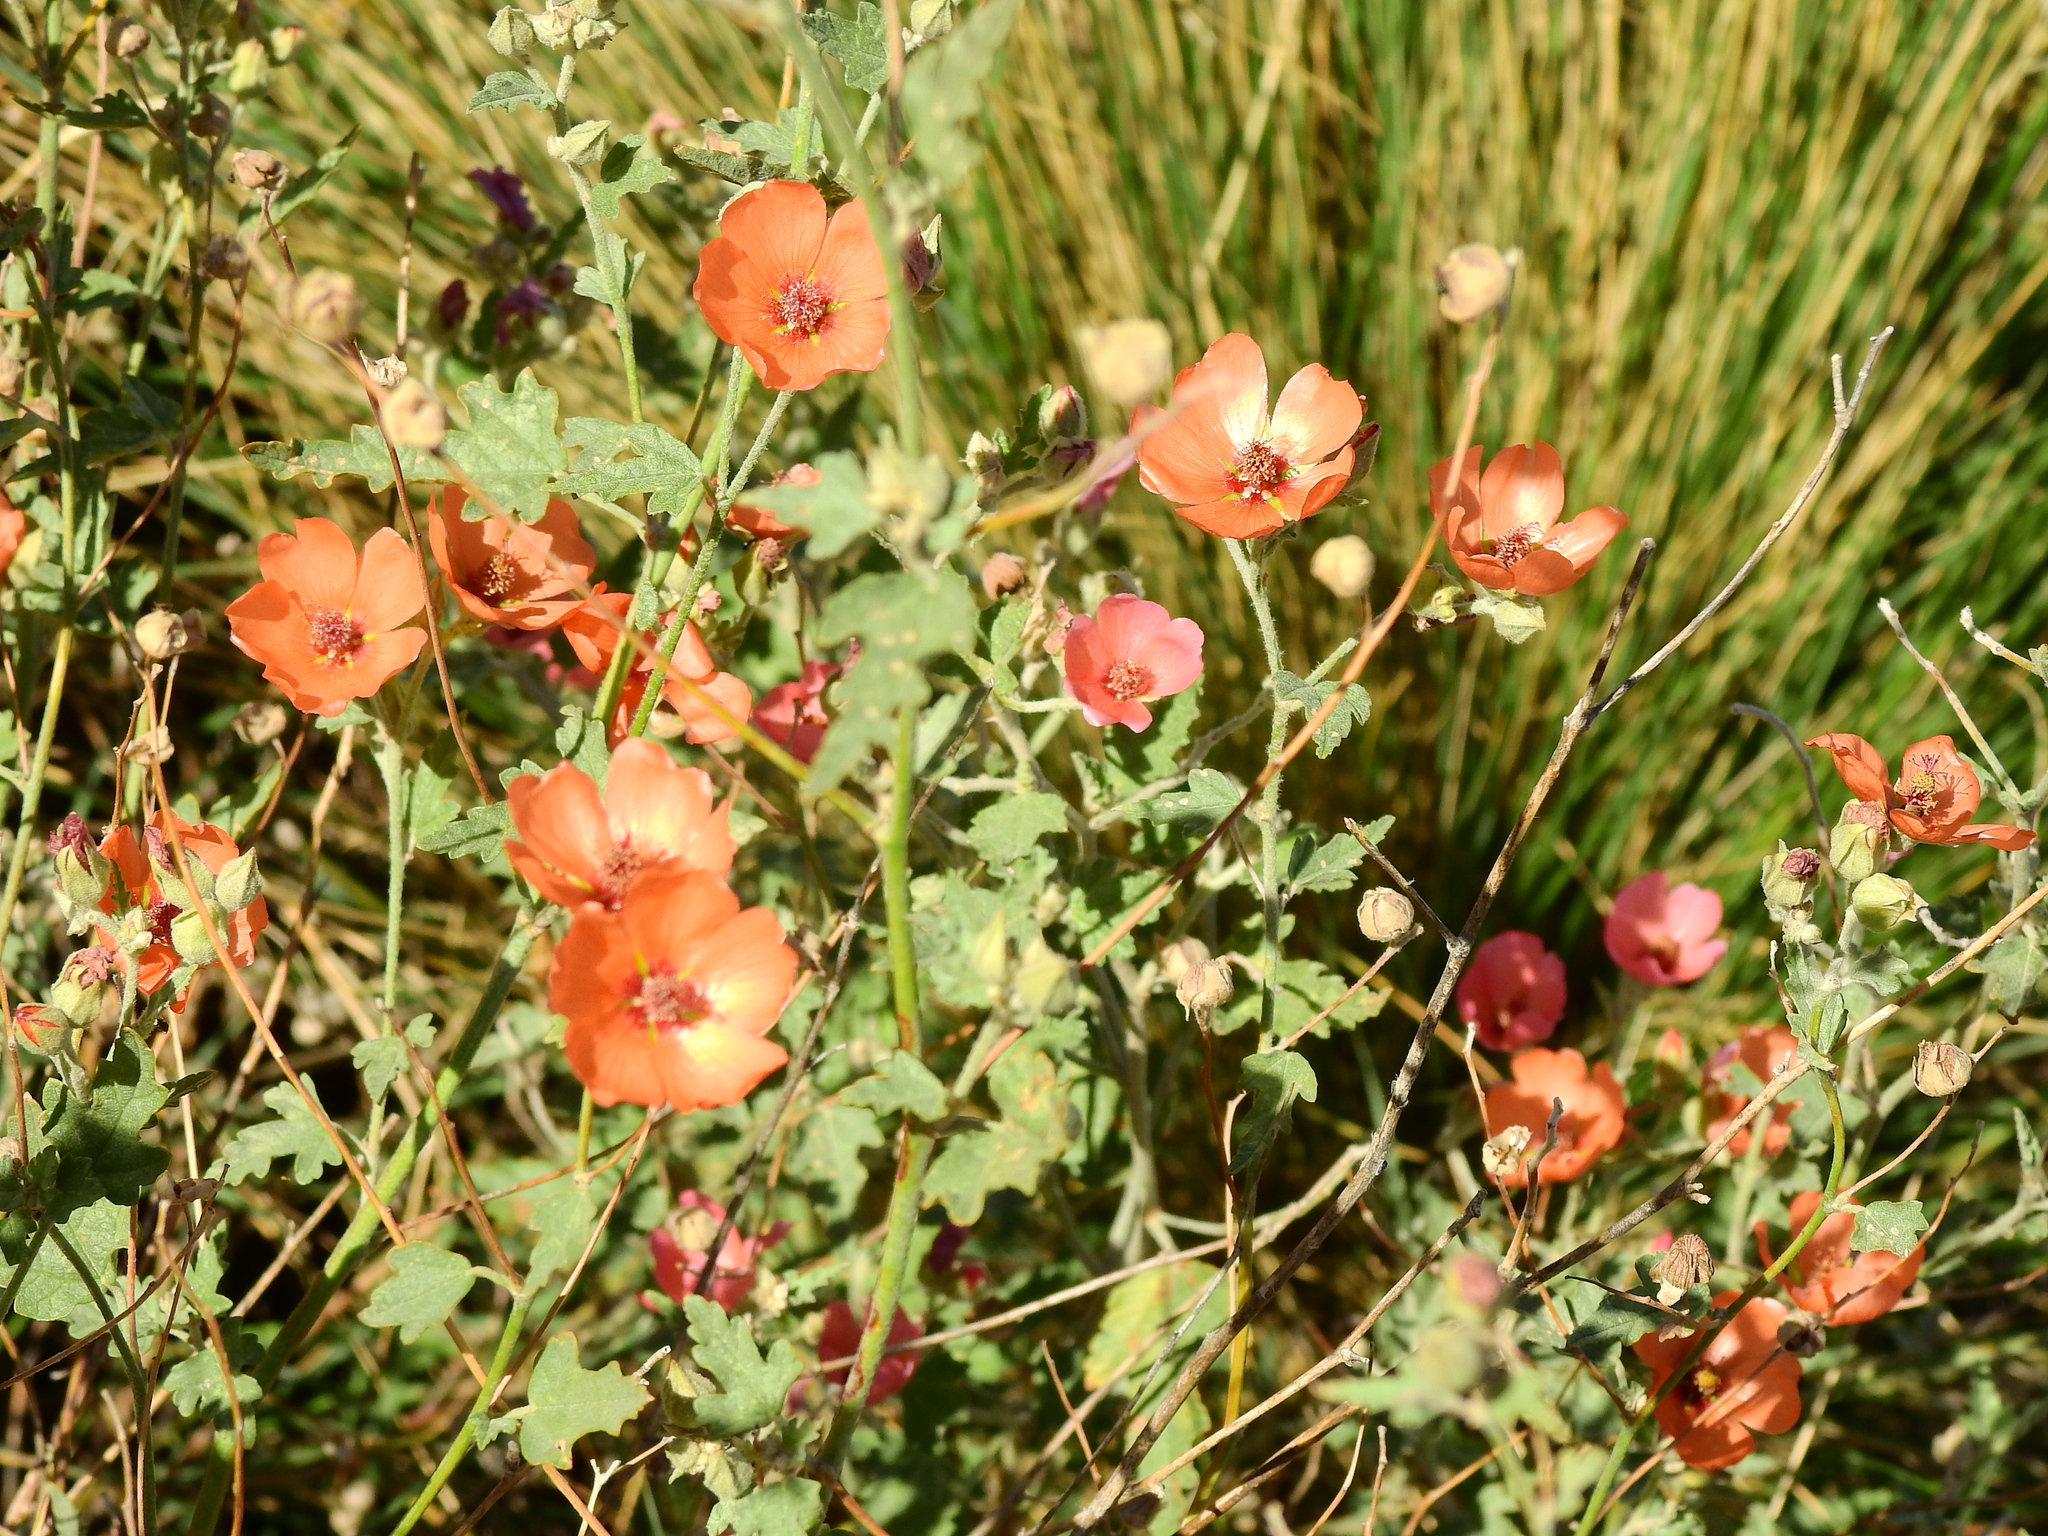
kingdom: Plantae
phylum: Tracheophyta
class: Magnoliopsida
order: Malvales
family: Malvaceae
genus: Sphaeralcea
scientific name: Sphaeralcea miniata
